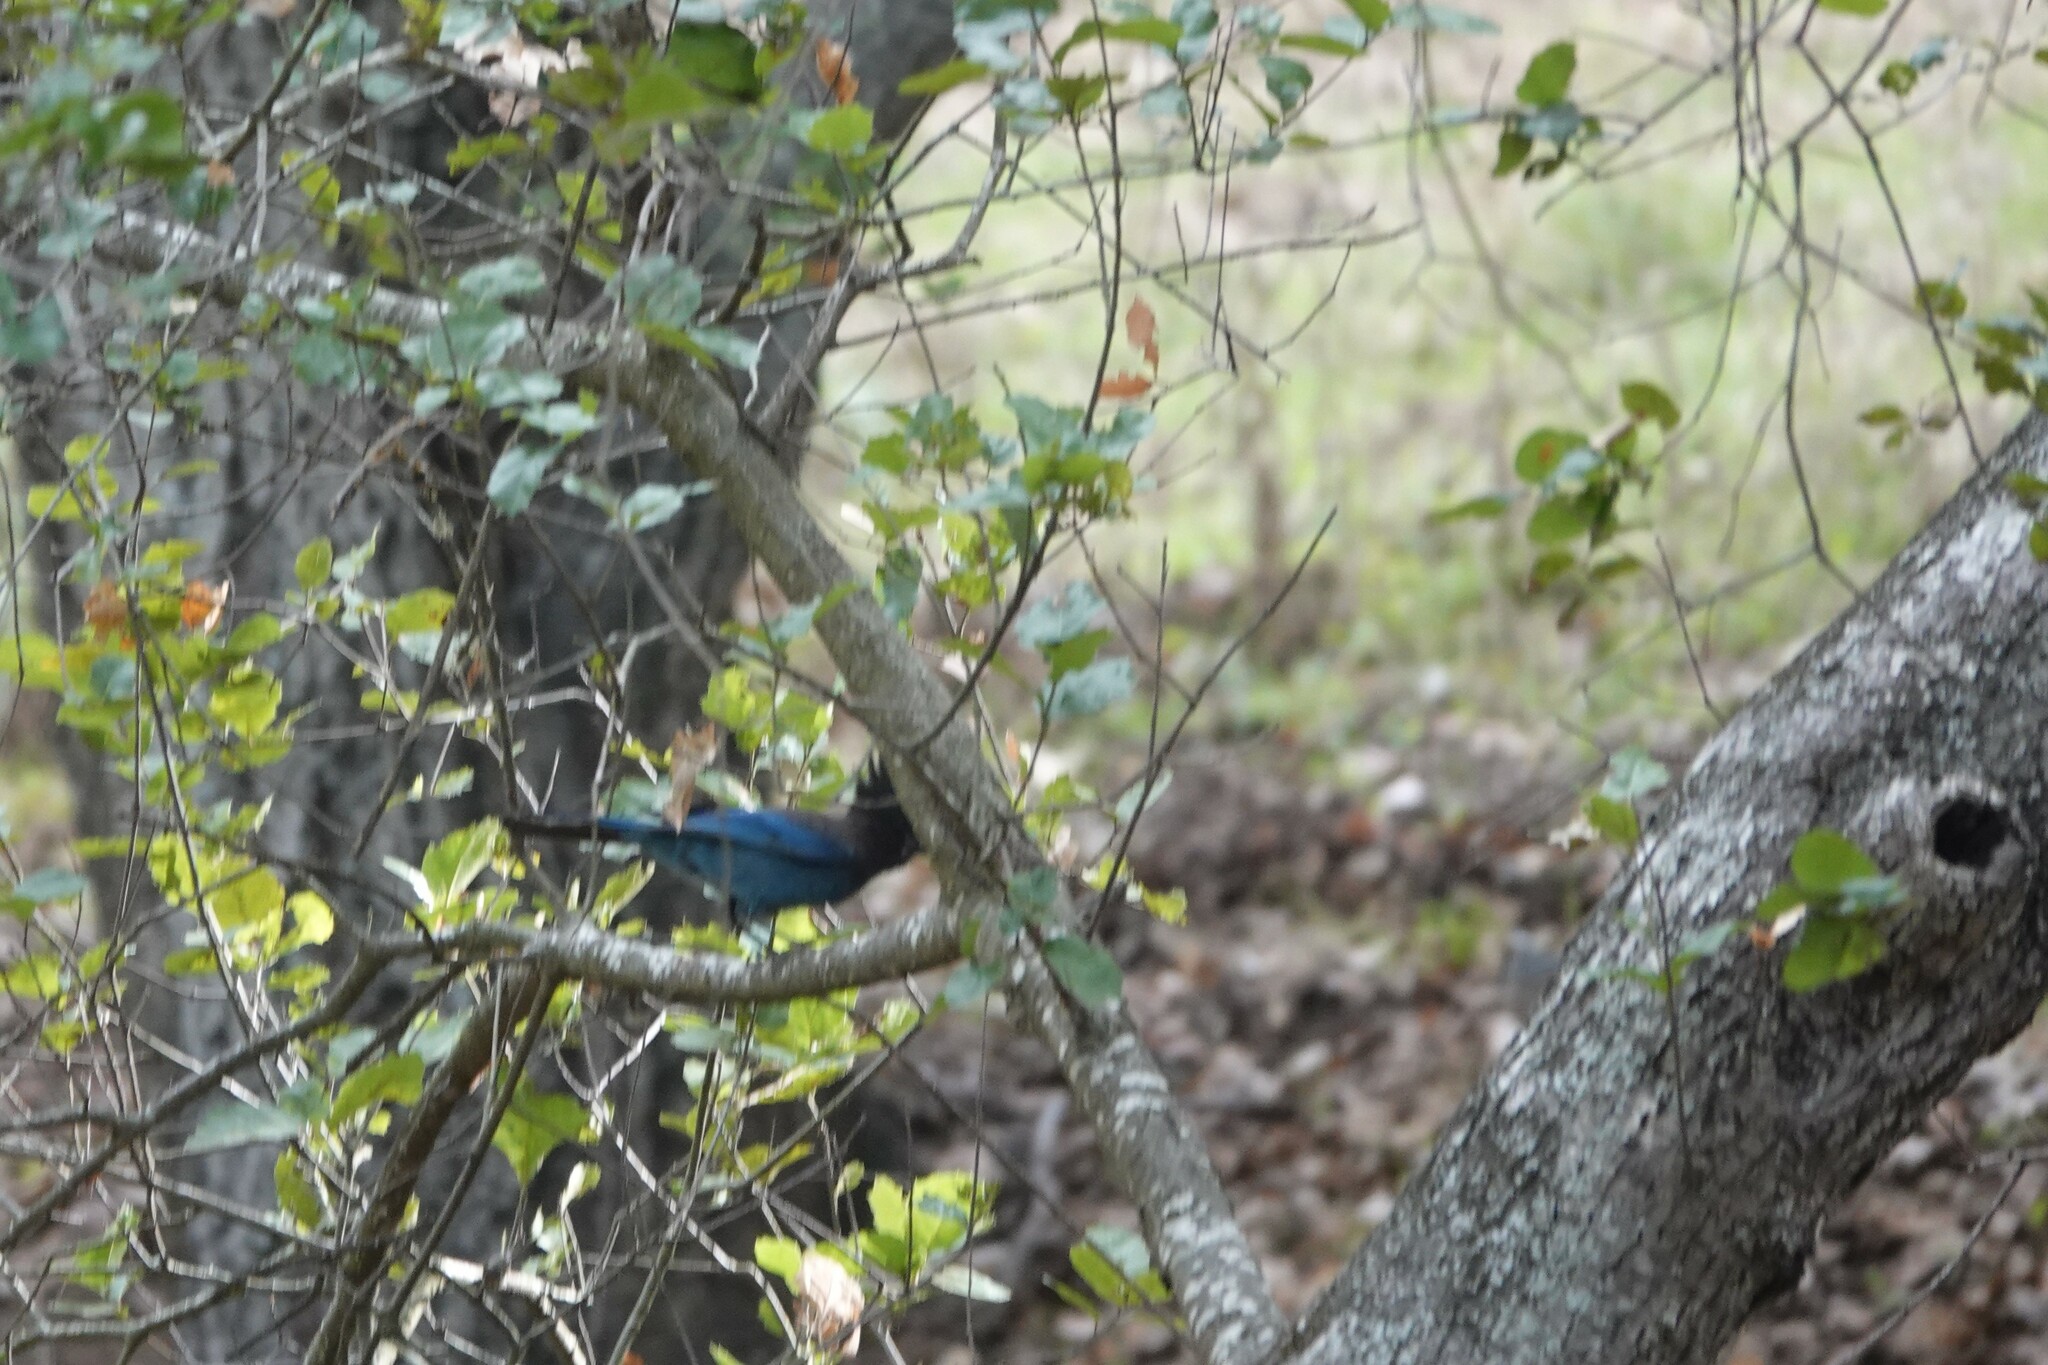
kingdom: Animalia
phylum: Chordata
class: Aves
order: Passeriformes
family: Corvidae
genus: Cyanocitta
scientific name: Cyanocitta stelleri
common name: Steller's jay
